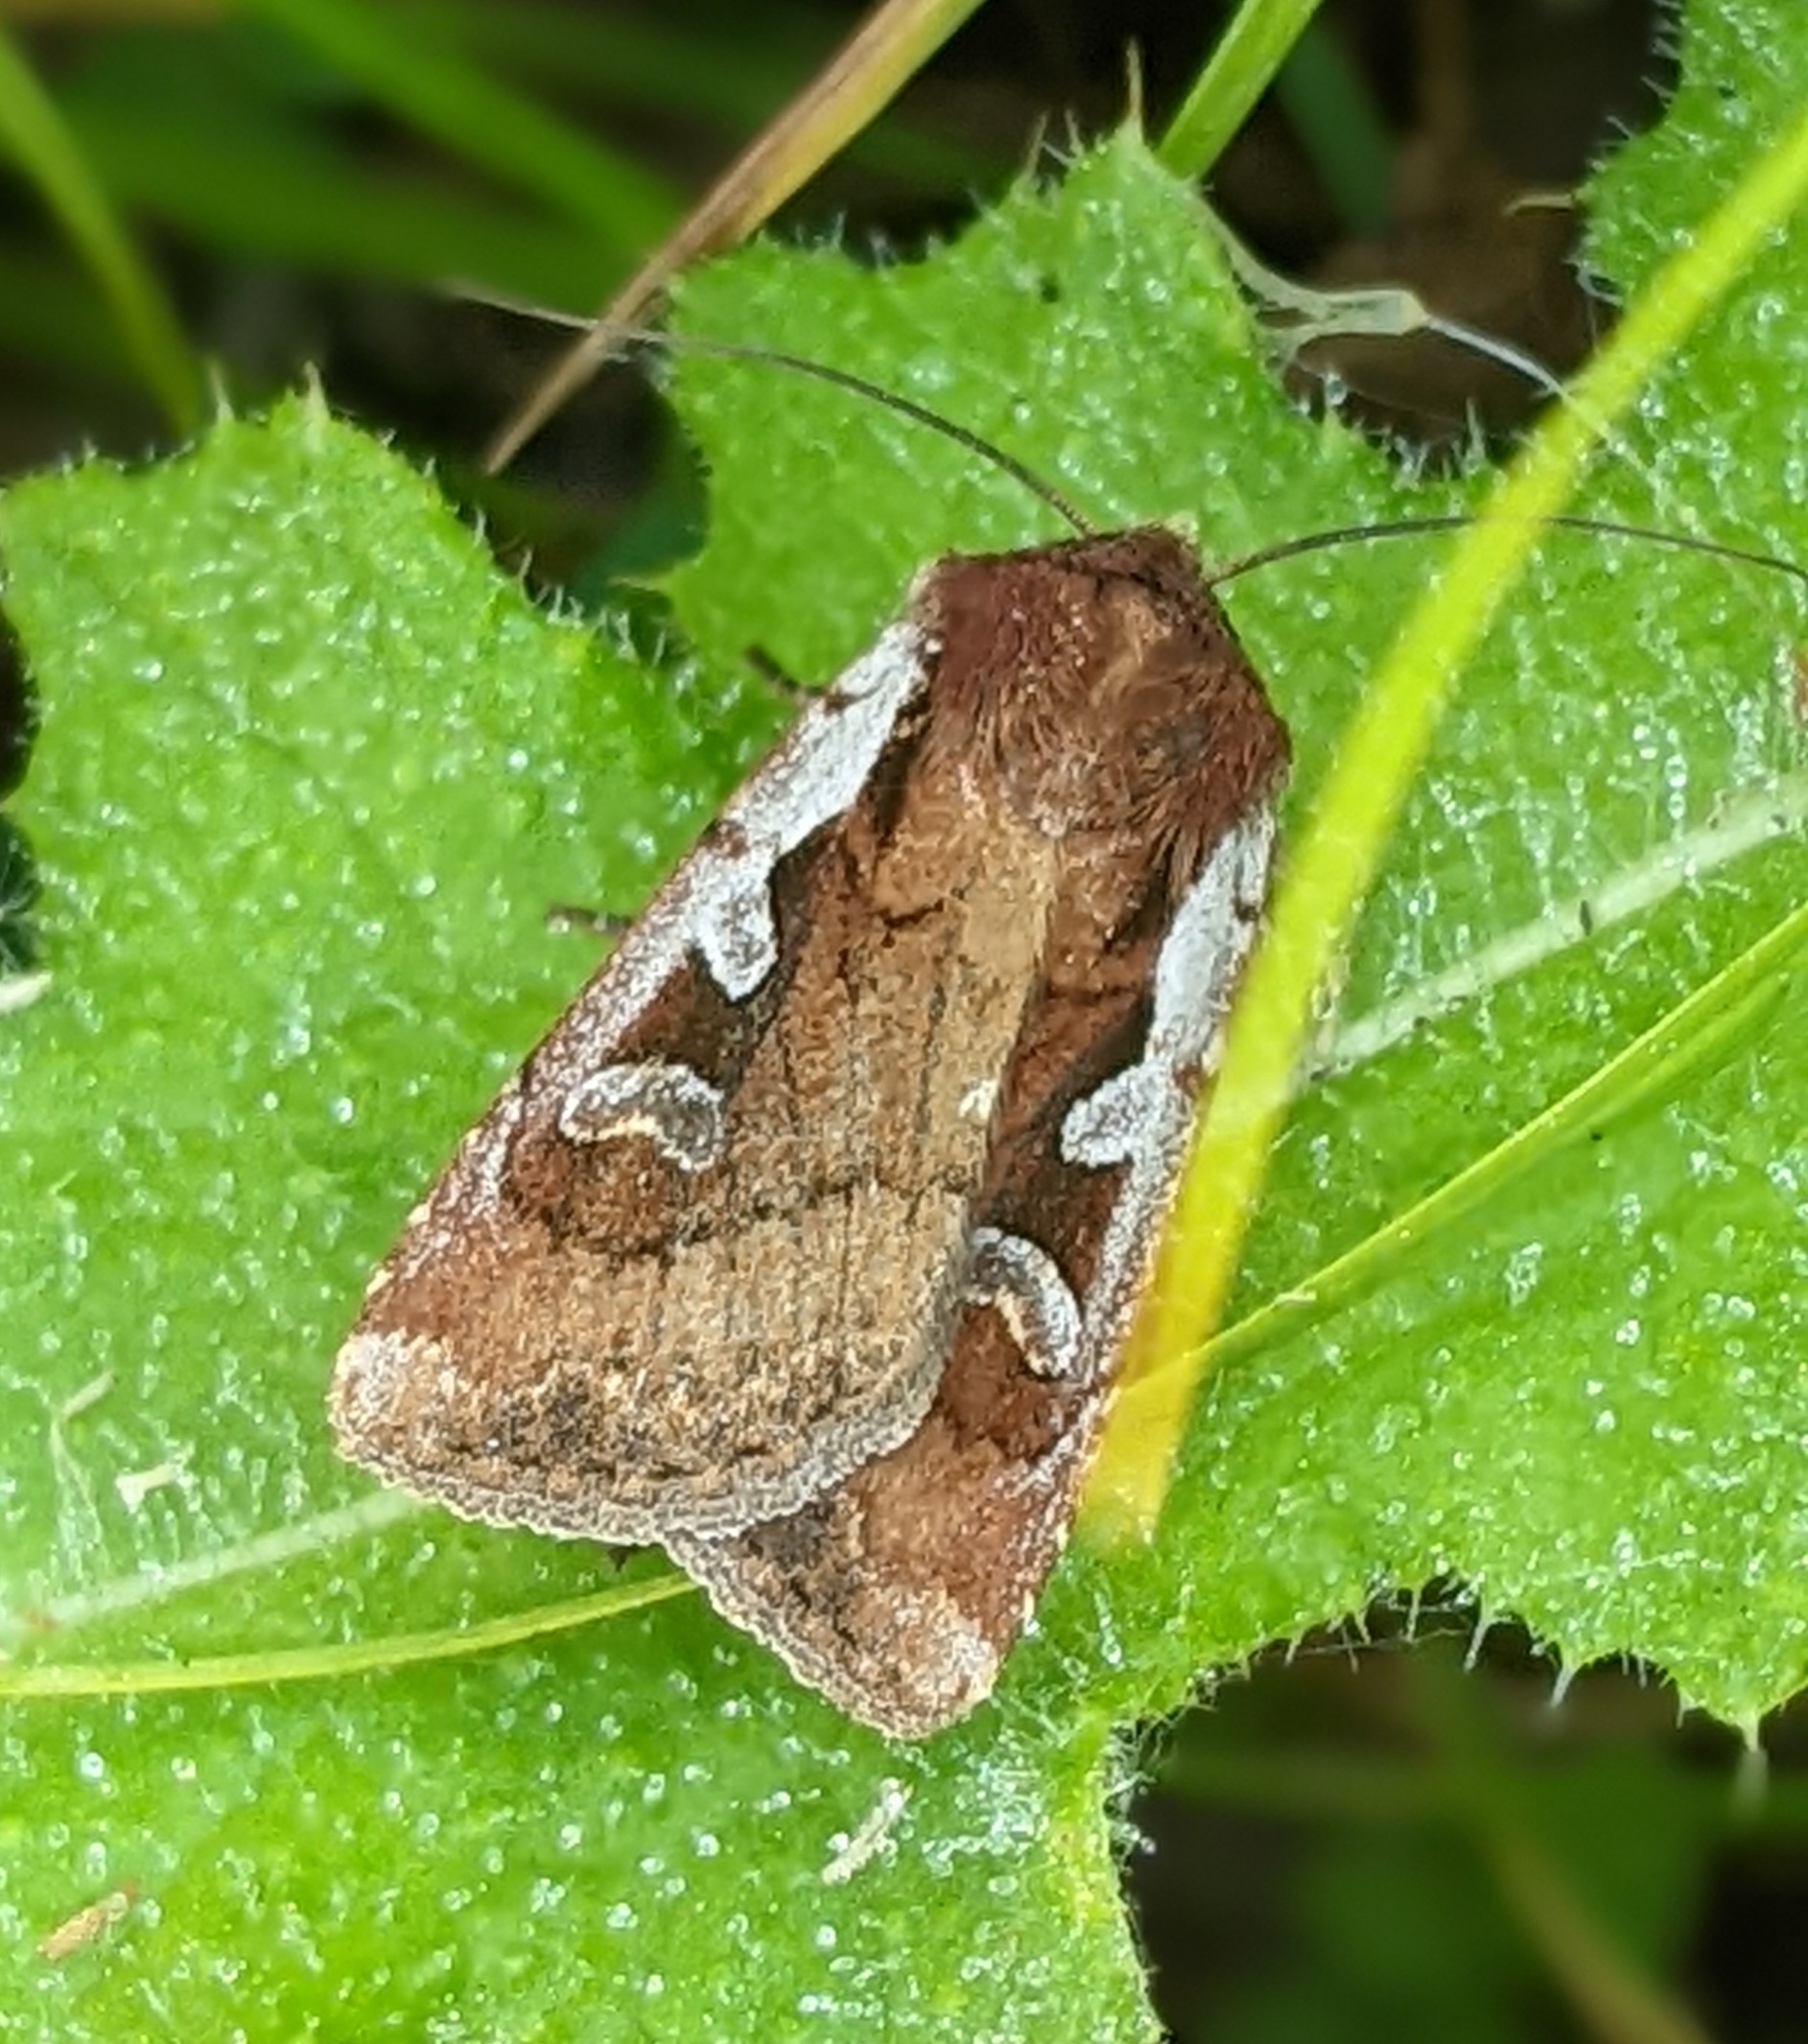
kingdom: Animalia
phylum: Arthropoda
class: Insecta
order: Lepidoptera
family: Noctuidae
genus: Euxoa
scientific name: Euxoa costata
